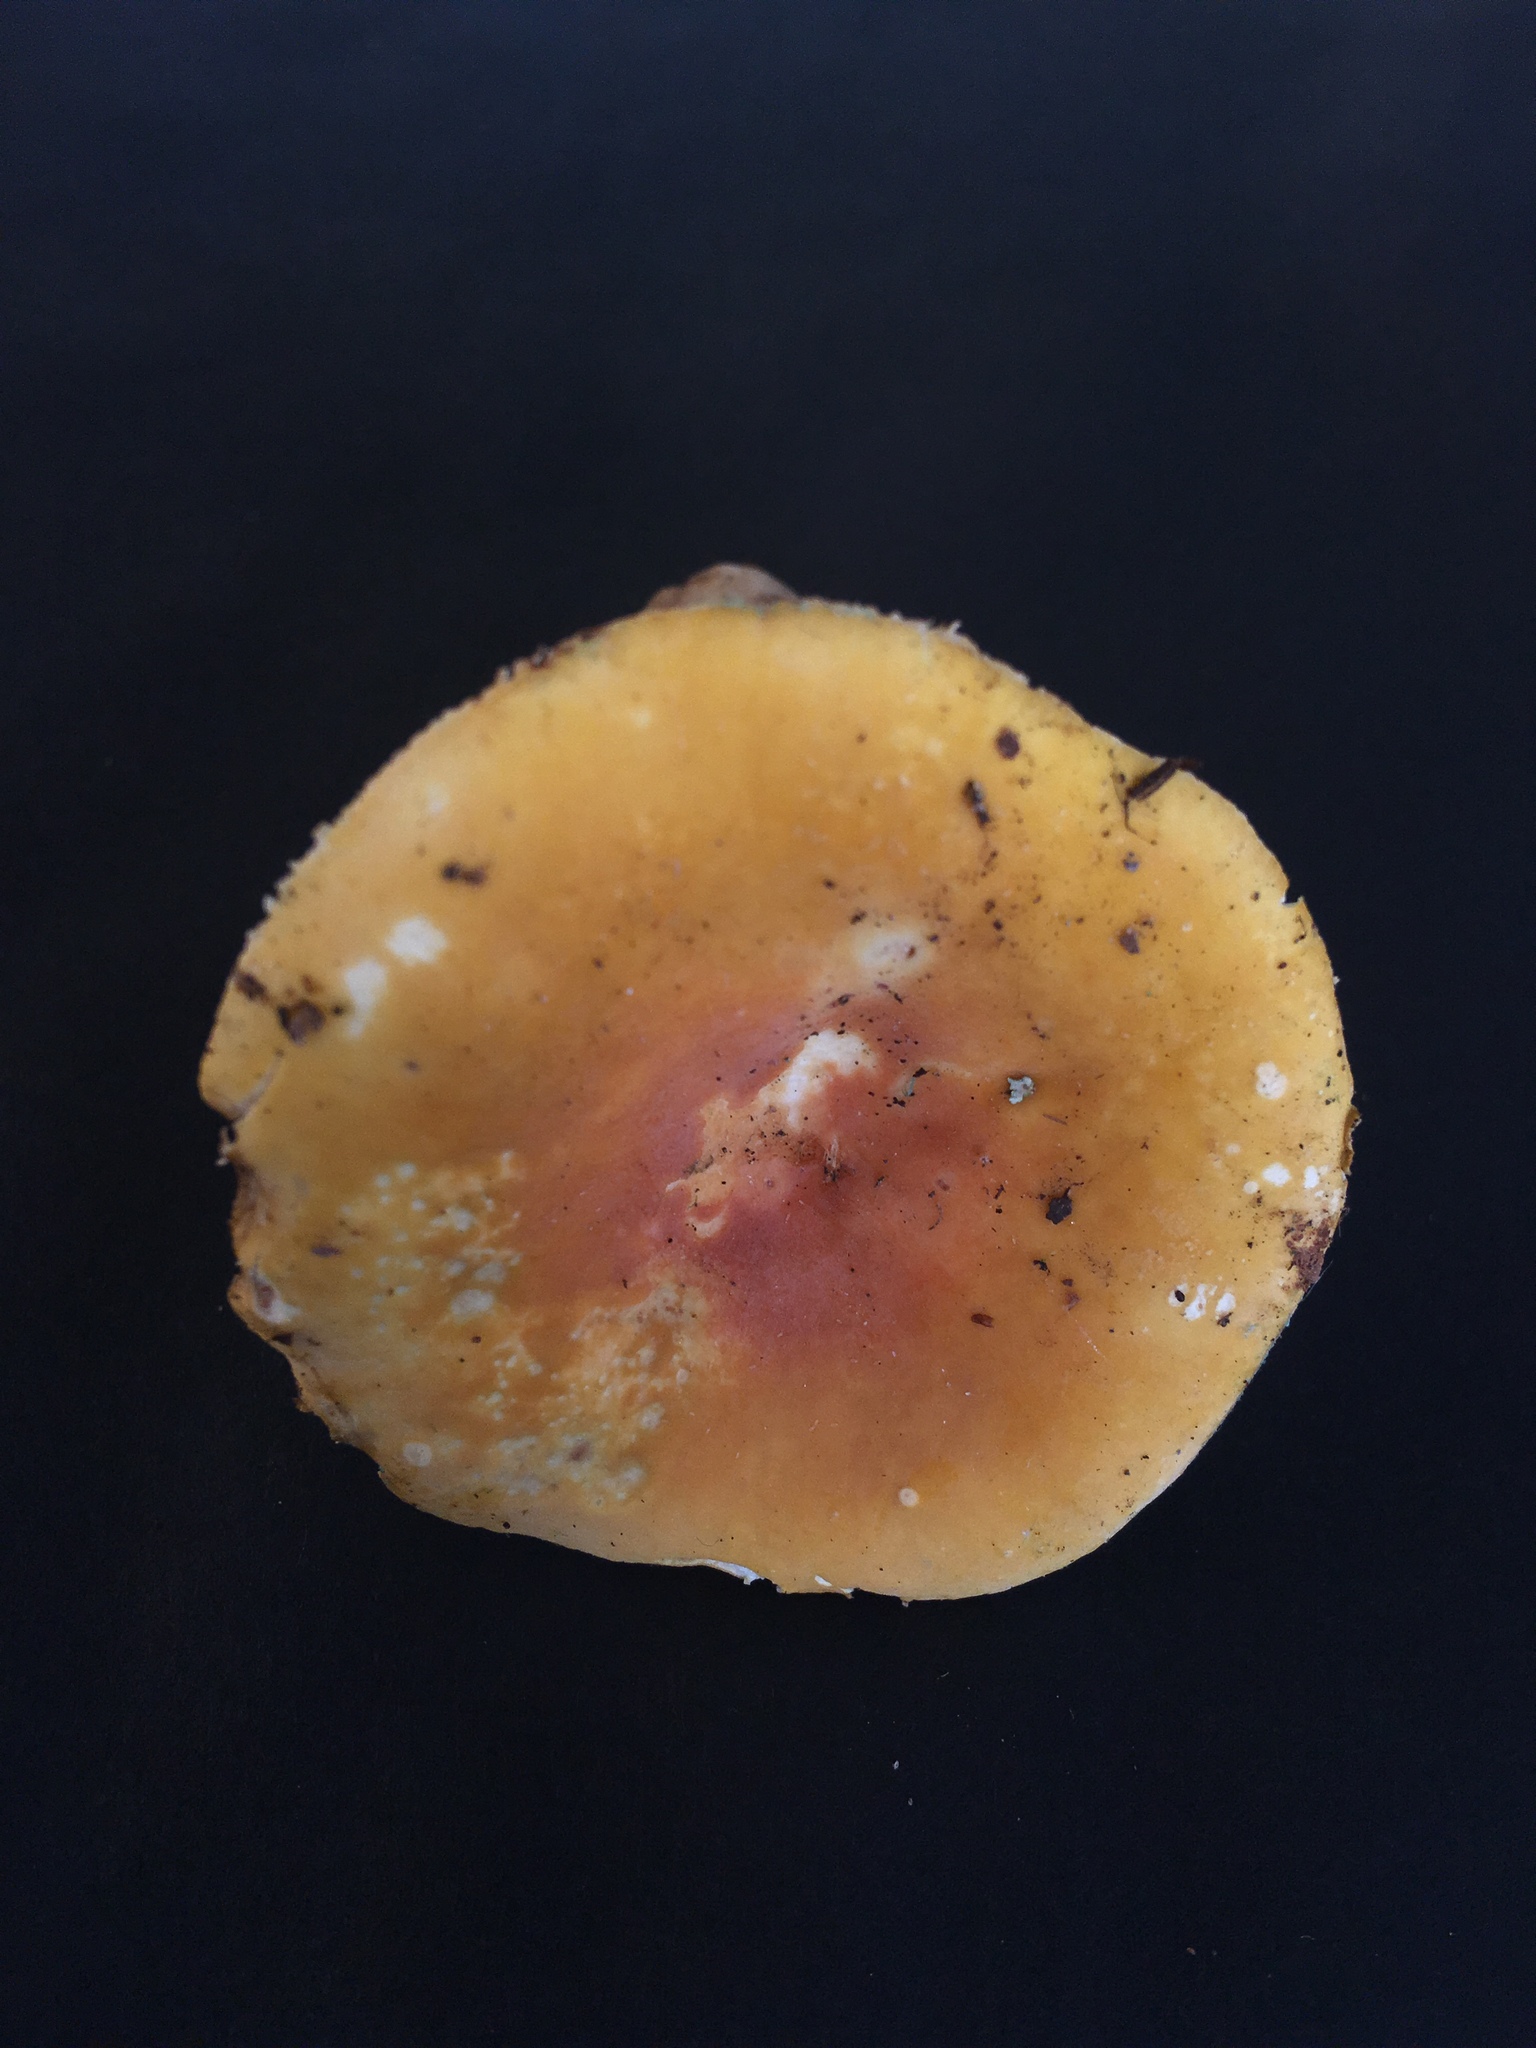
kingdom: Fungi
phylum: Basidiomycota
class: Agaricomycetes
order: Russulales
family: Russulaceae
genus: Russula
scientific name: Russula ochroleucoides
